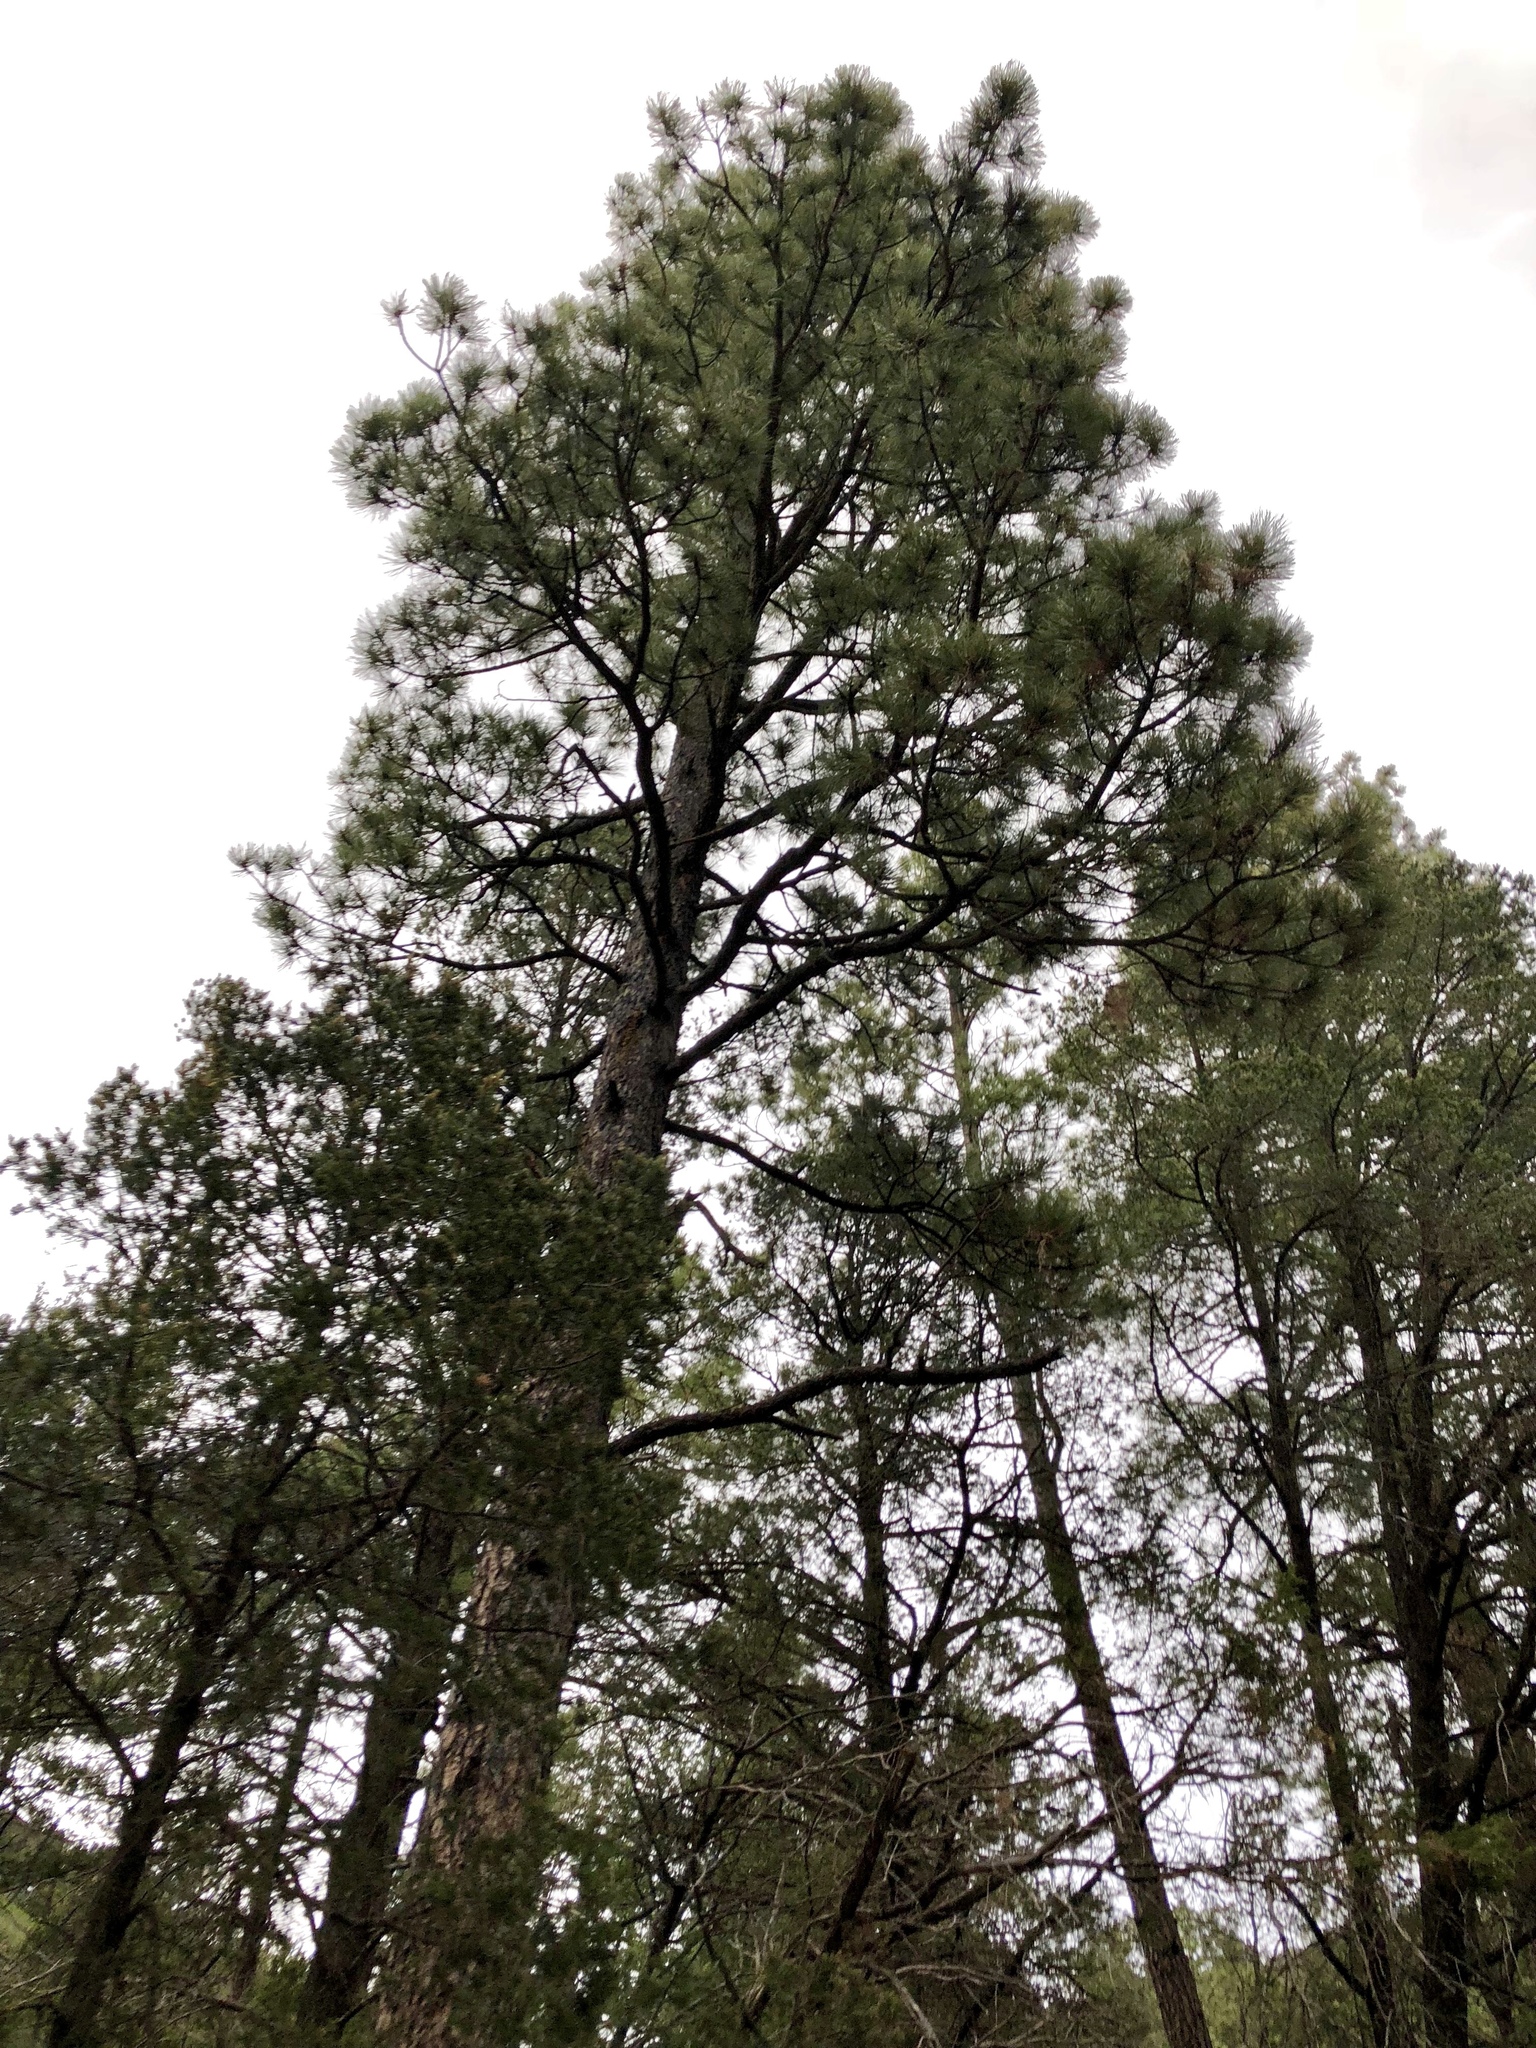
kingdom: Plantae
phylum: Tracheophyta
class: Pinopsida
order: Pinales
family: Pinaceae
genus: Pinus
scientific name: Pinus ponderosa
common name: Western yellow-pine
